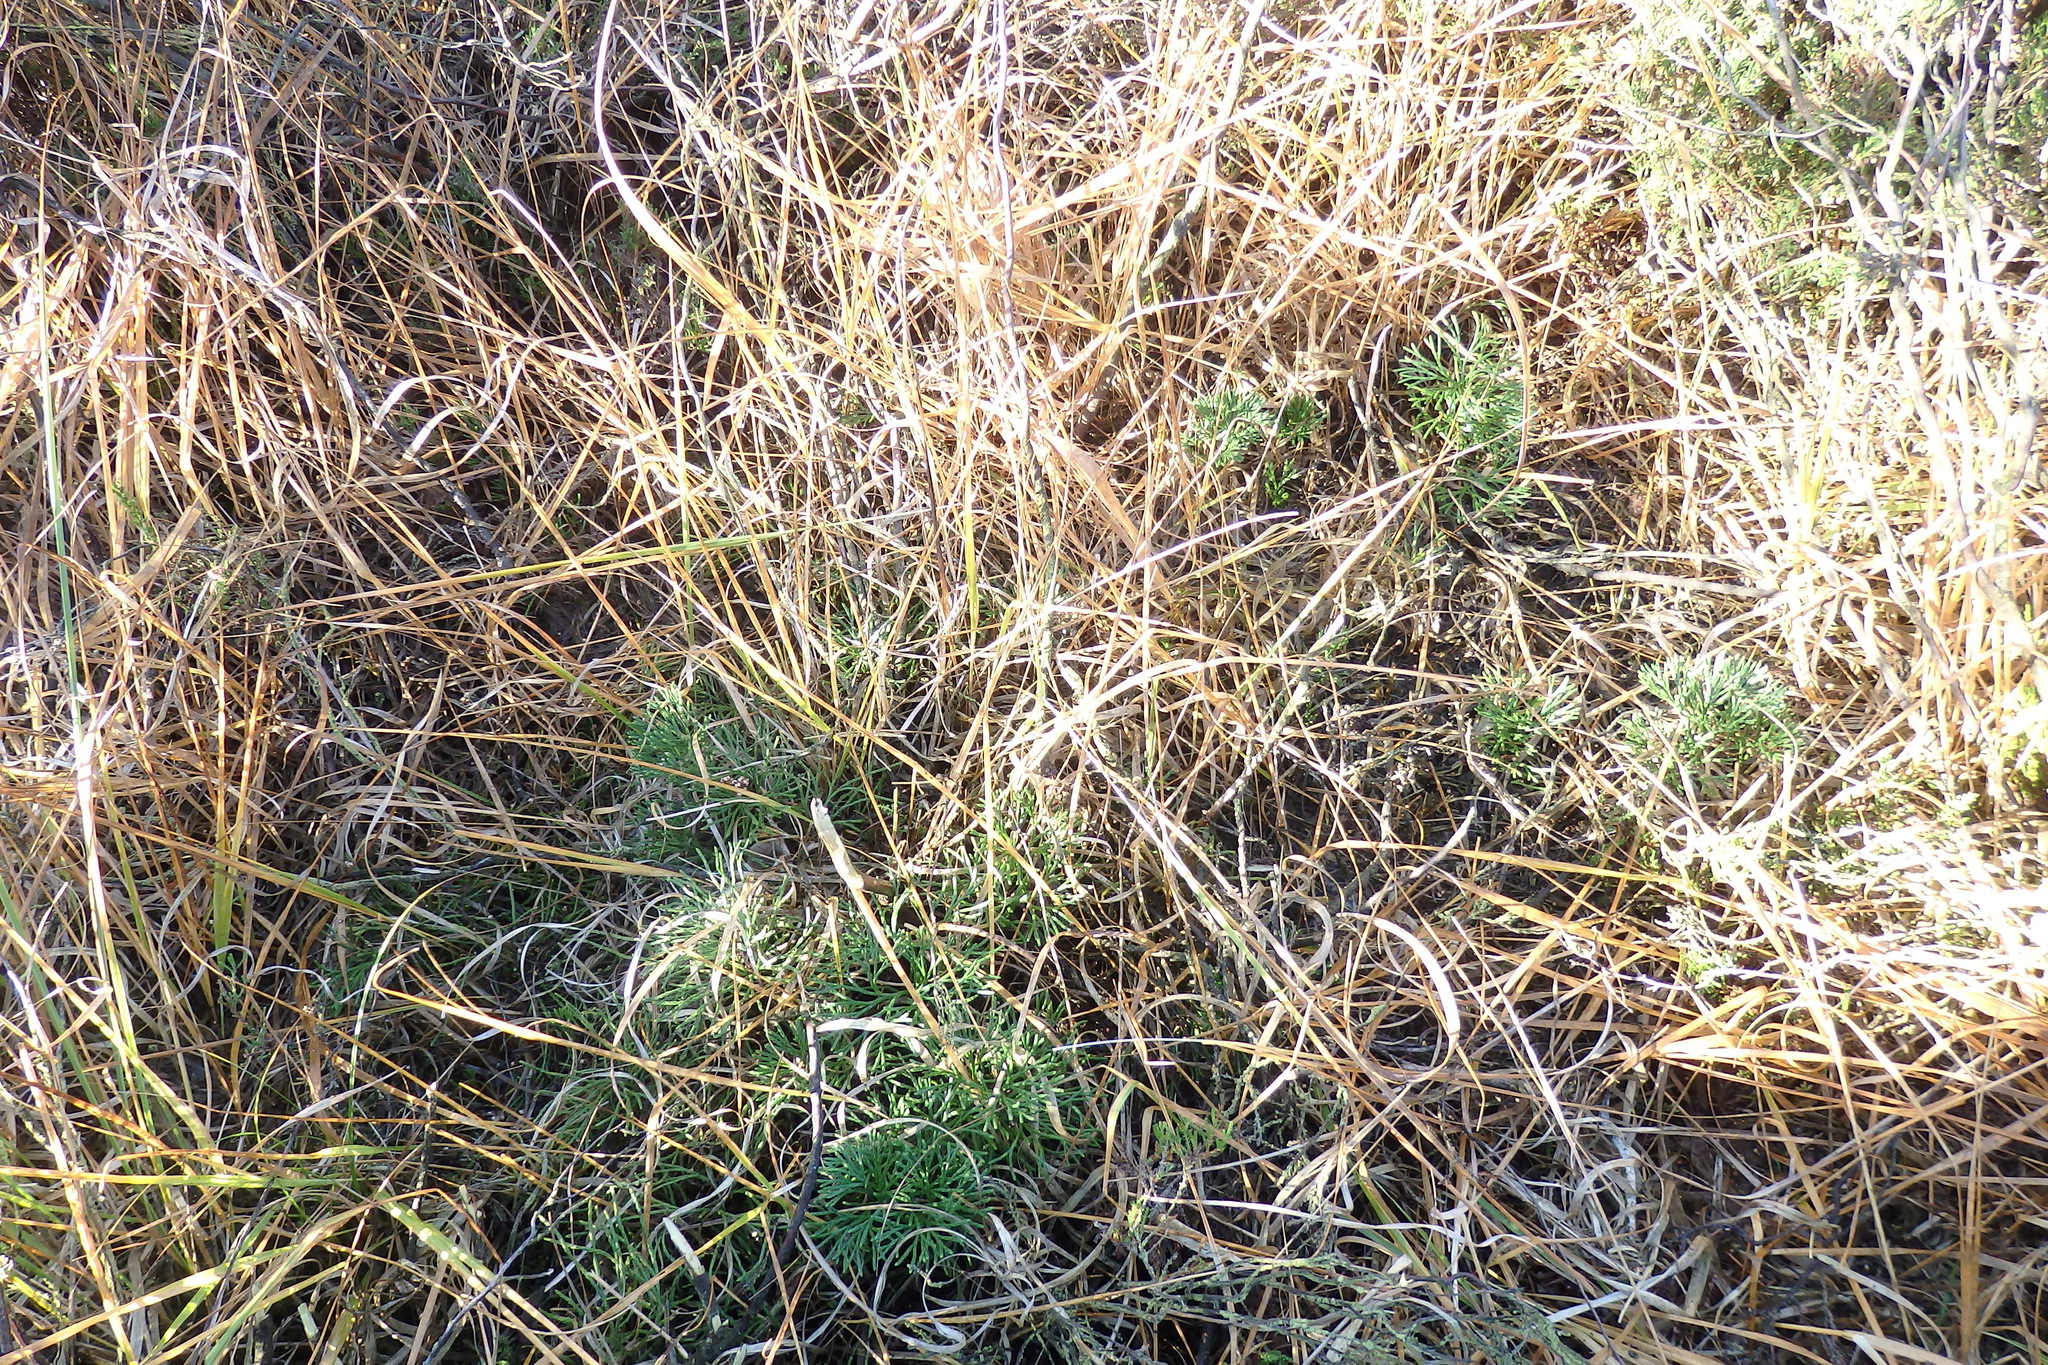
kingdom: Plantae
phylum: Tracheophyta
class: Lycopodiopsida
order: Lycopodiales
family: Lycopodiaceae
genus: Diphasiastrum
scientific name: Diphasiastrum tristachyum
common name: Blue ground-cedar
